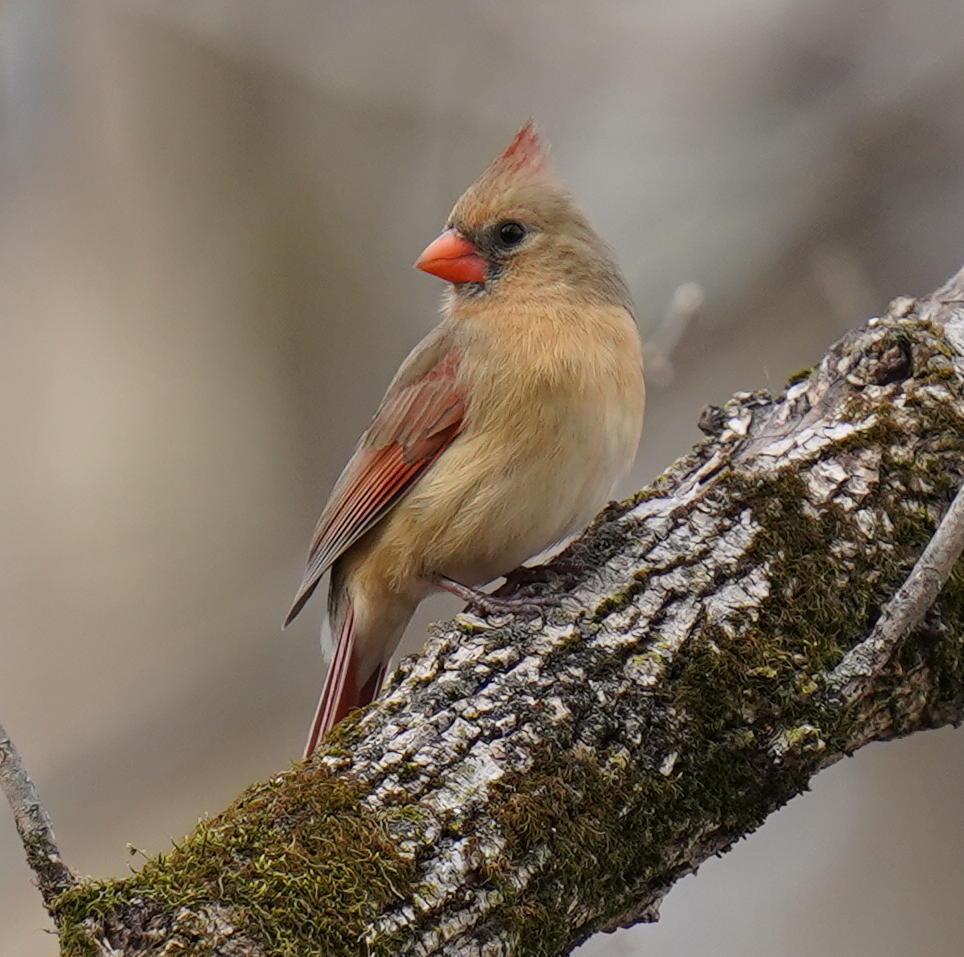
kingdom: Animalia
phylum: Chordata
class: Aves
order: Passeriformes
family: Cardinalidae
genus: Cardinalis
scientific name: Cardinalis cardinalis
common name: Northern cardinal
